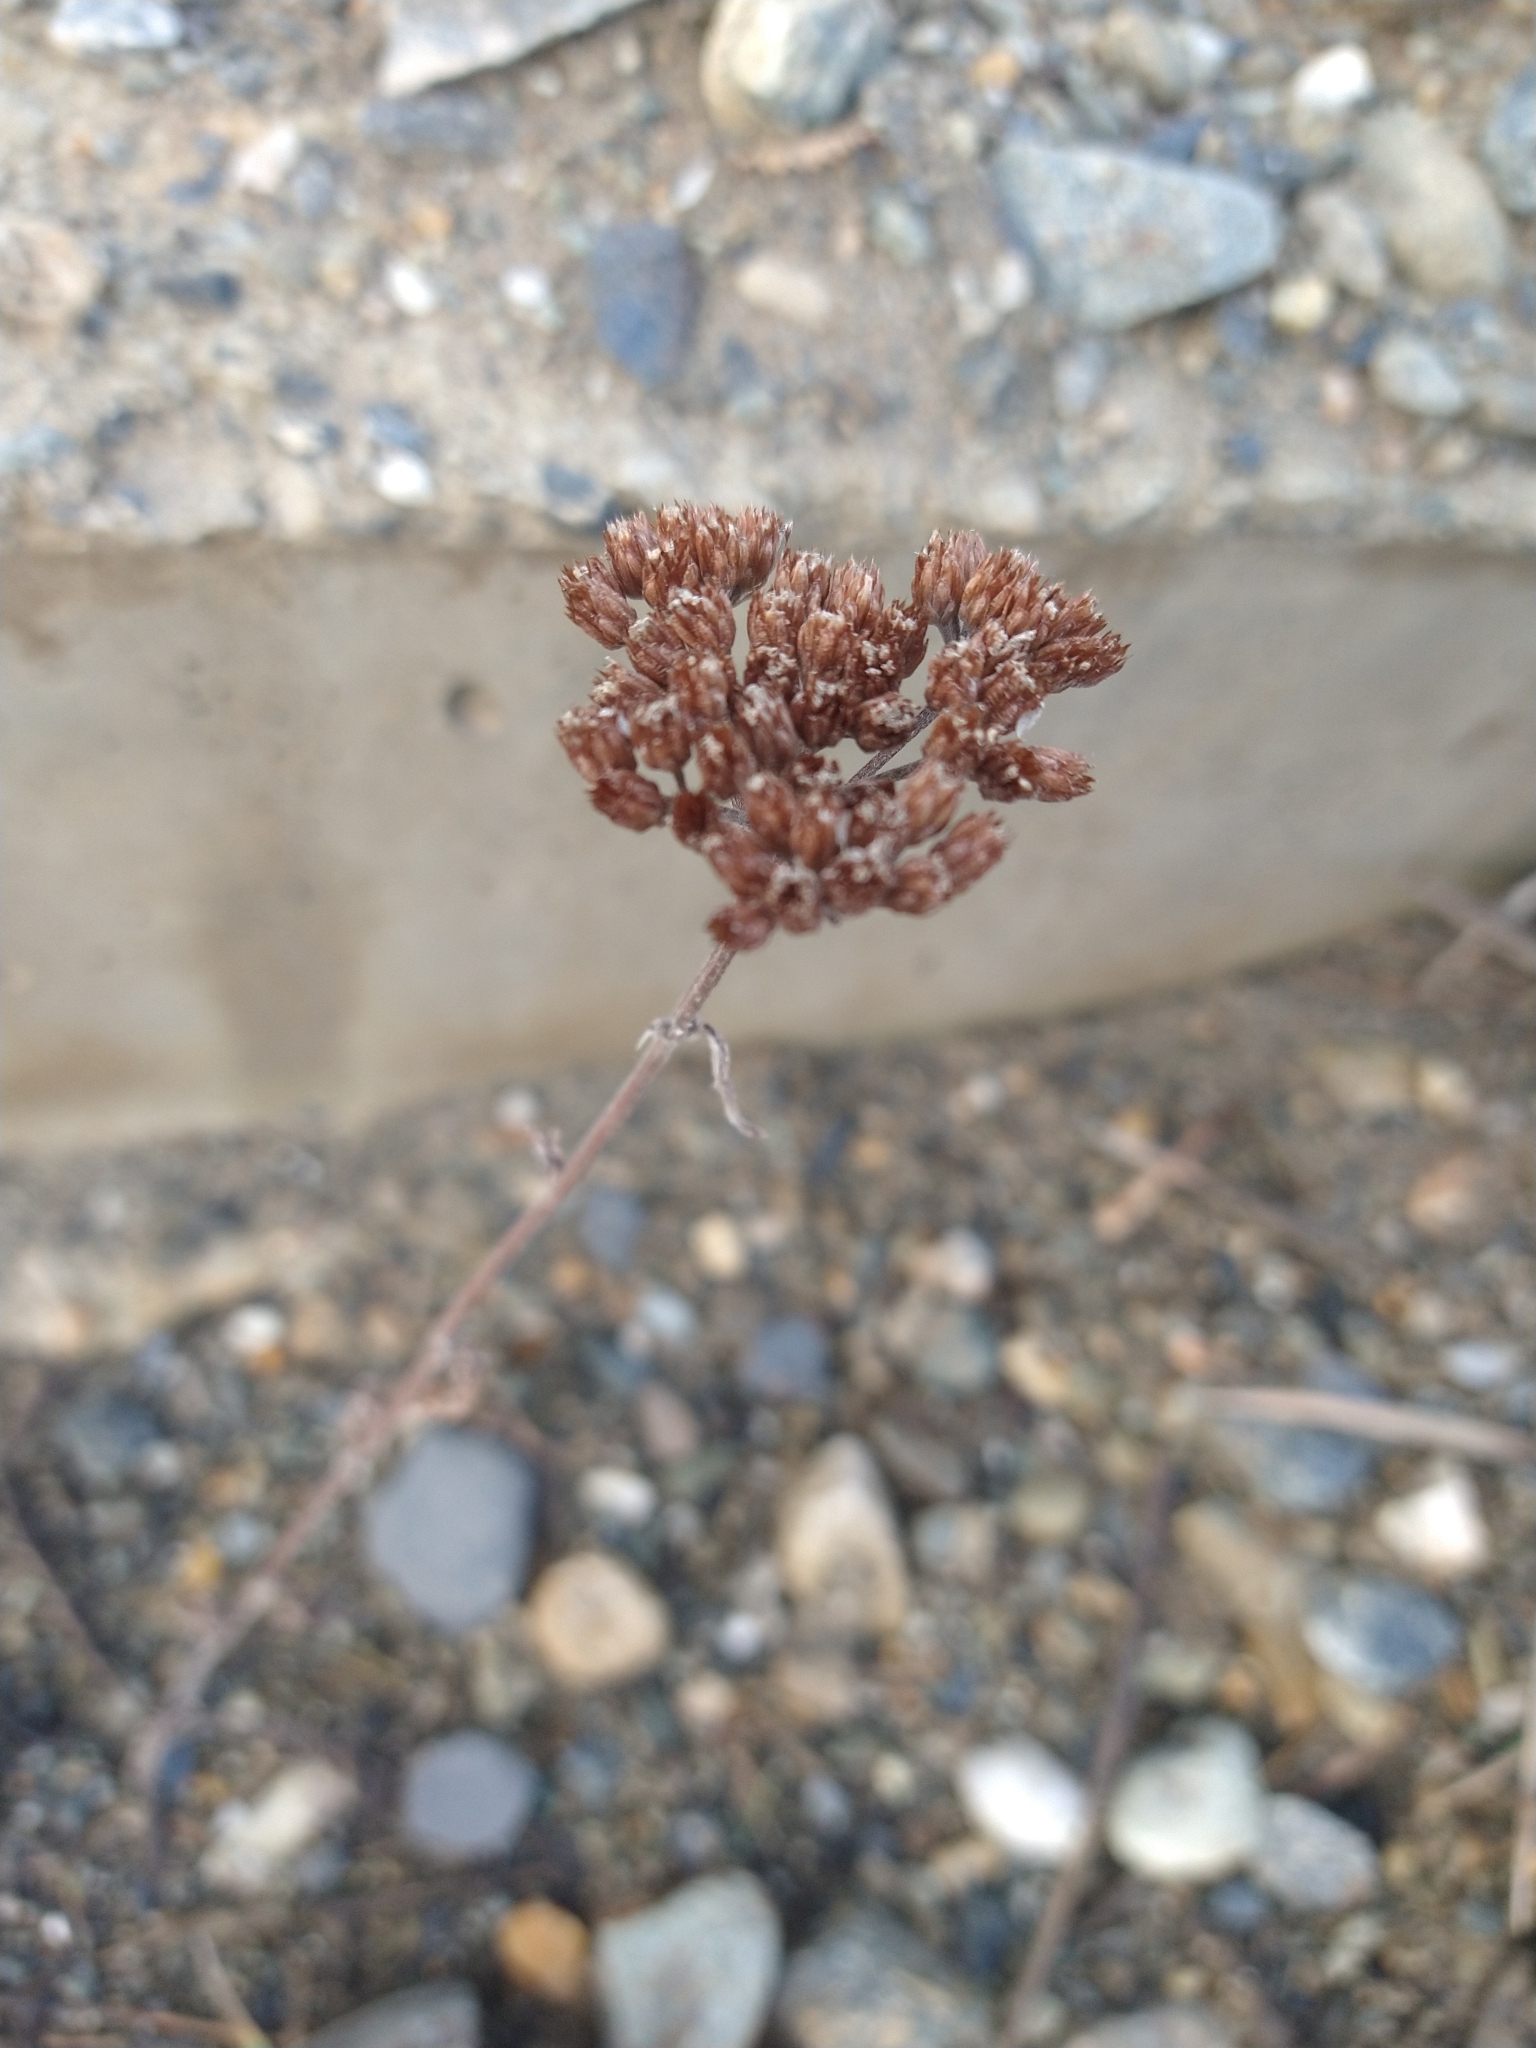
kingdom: Plantae
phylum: Tracheophyta
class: Magnoliopsida
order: Asterales
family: Asteraceae
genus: Achillea
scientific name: Achillea millefolium
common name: Yarrow
